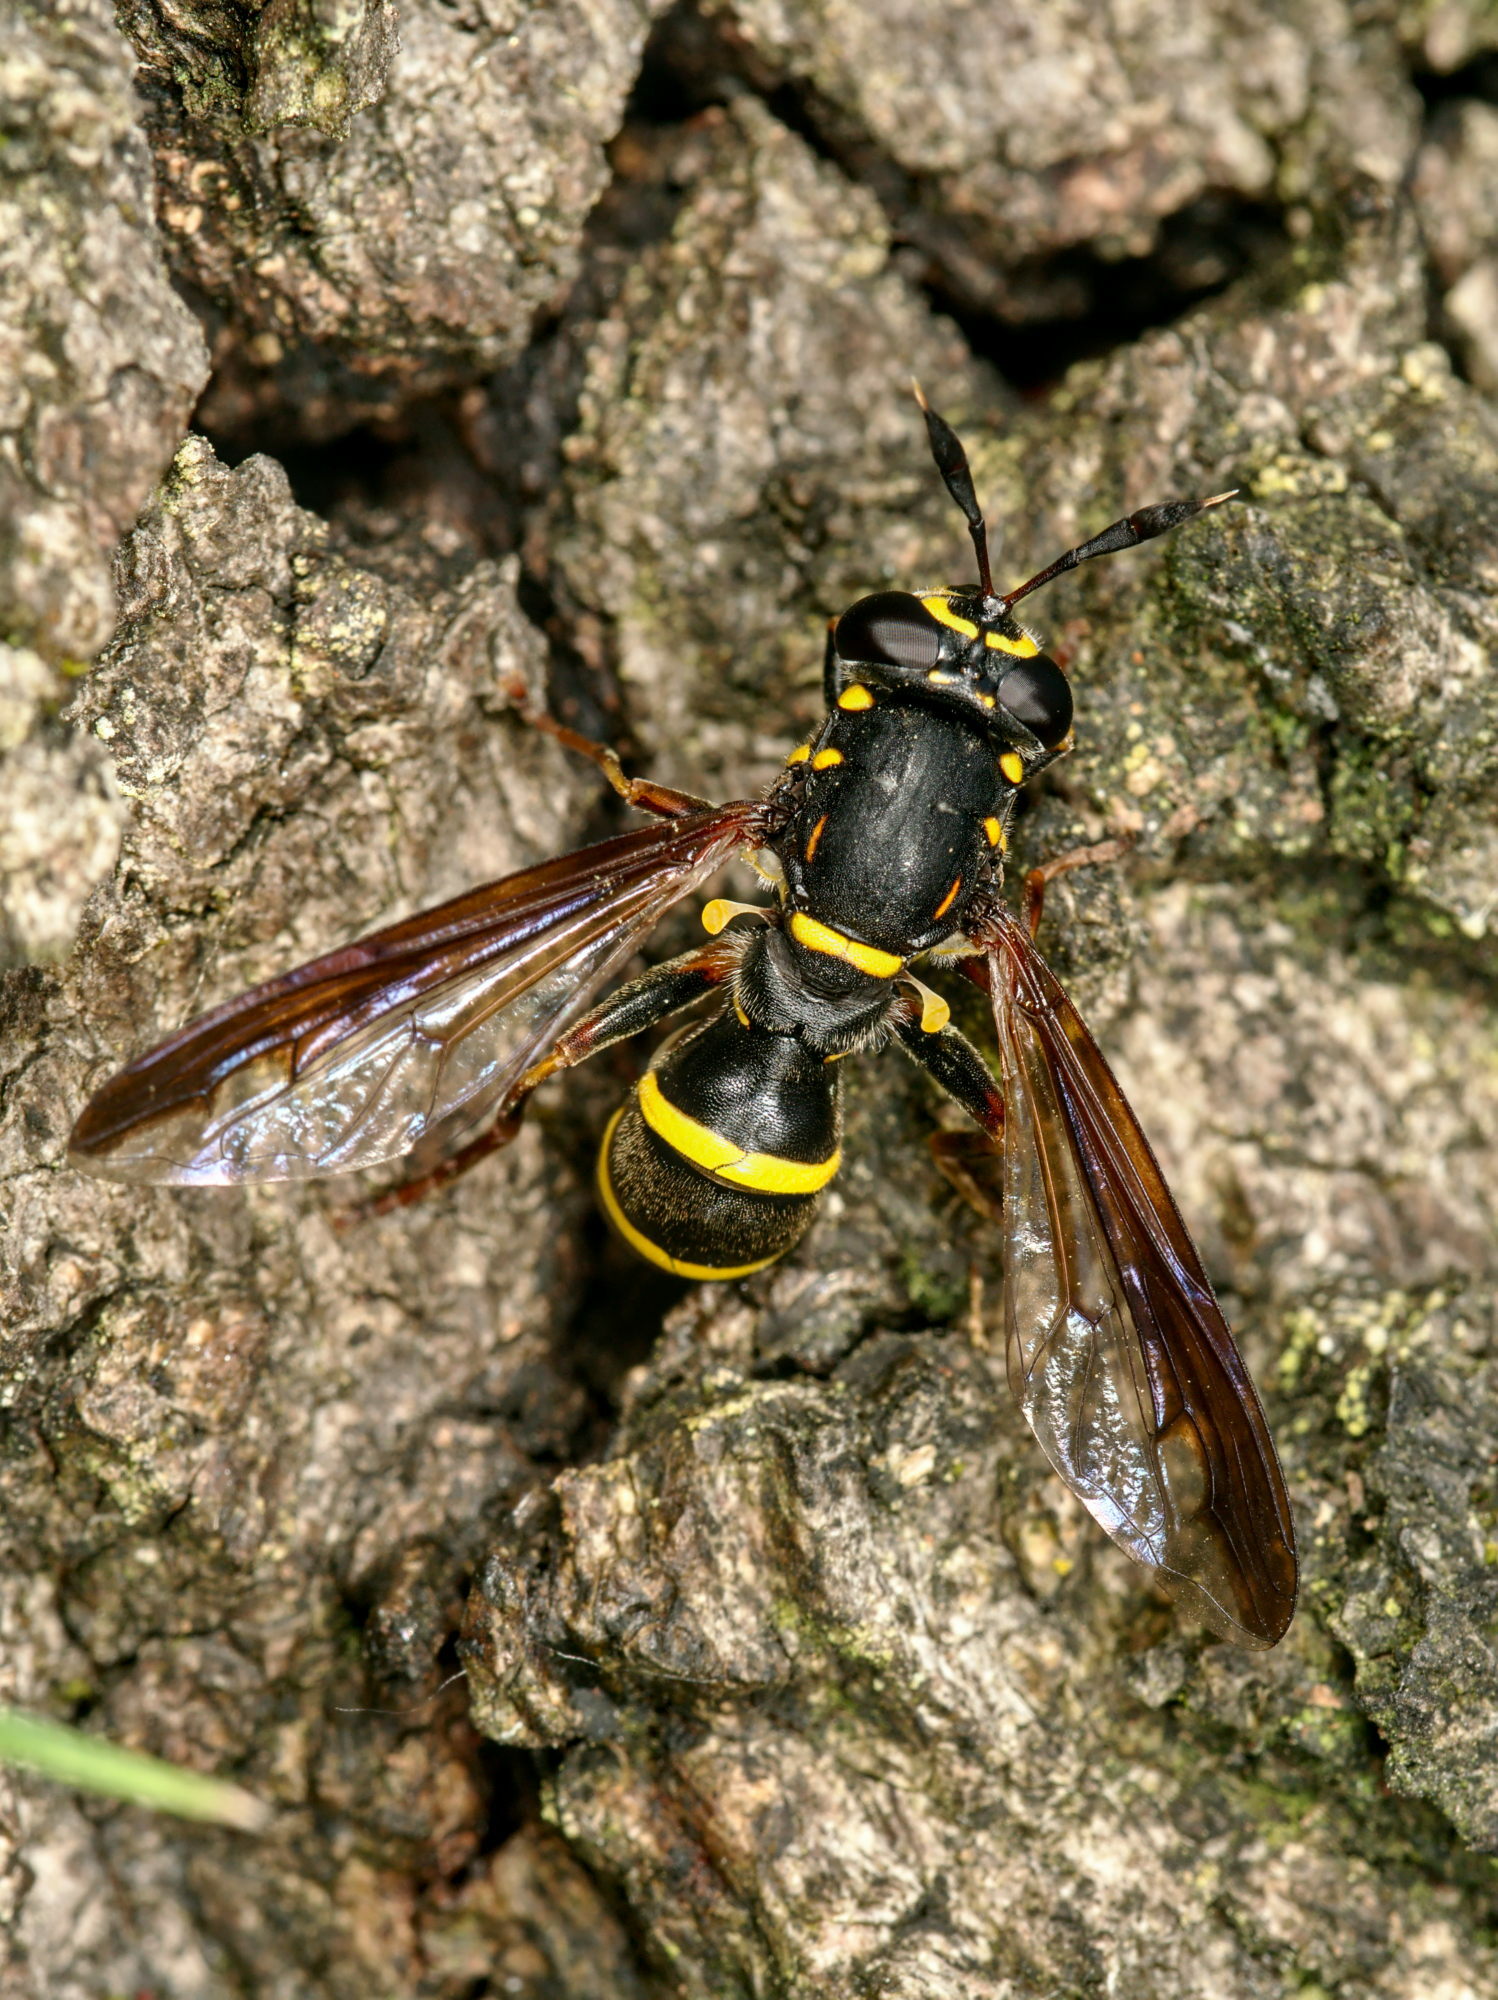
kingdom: Animalia
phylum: Arthropoda
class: Insecta
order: Diptera
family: Syrphidae
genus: Sphiximorpha
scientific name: Sphiximorpha subsessilis
